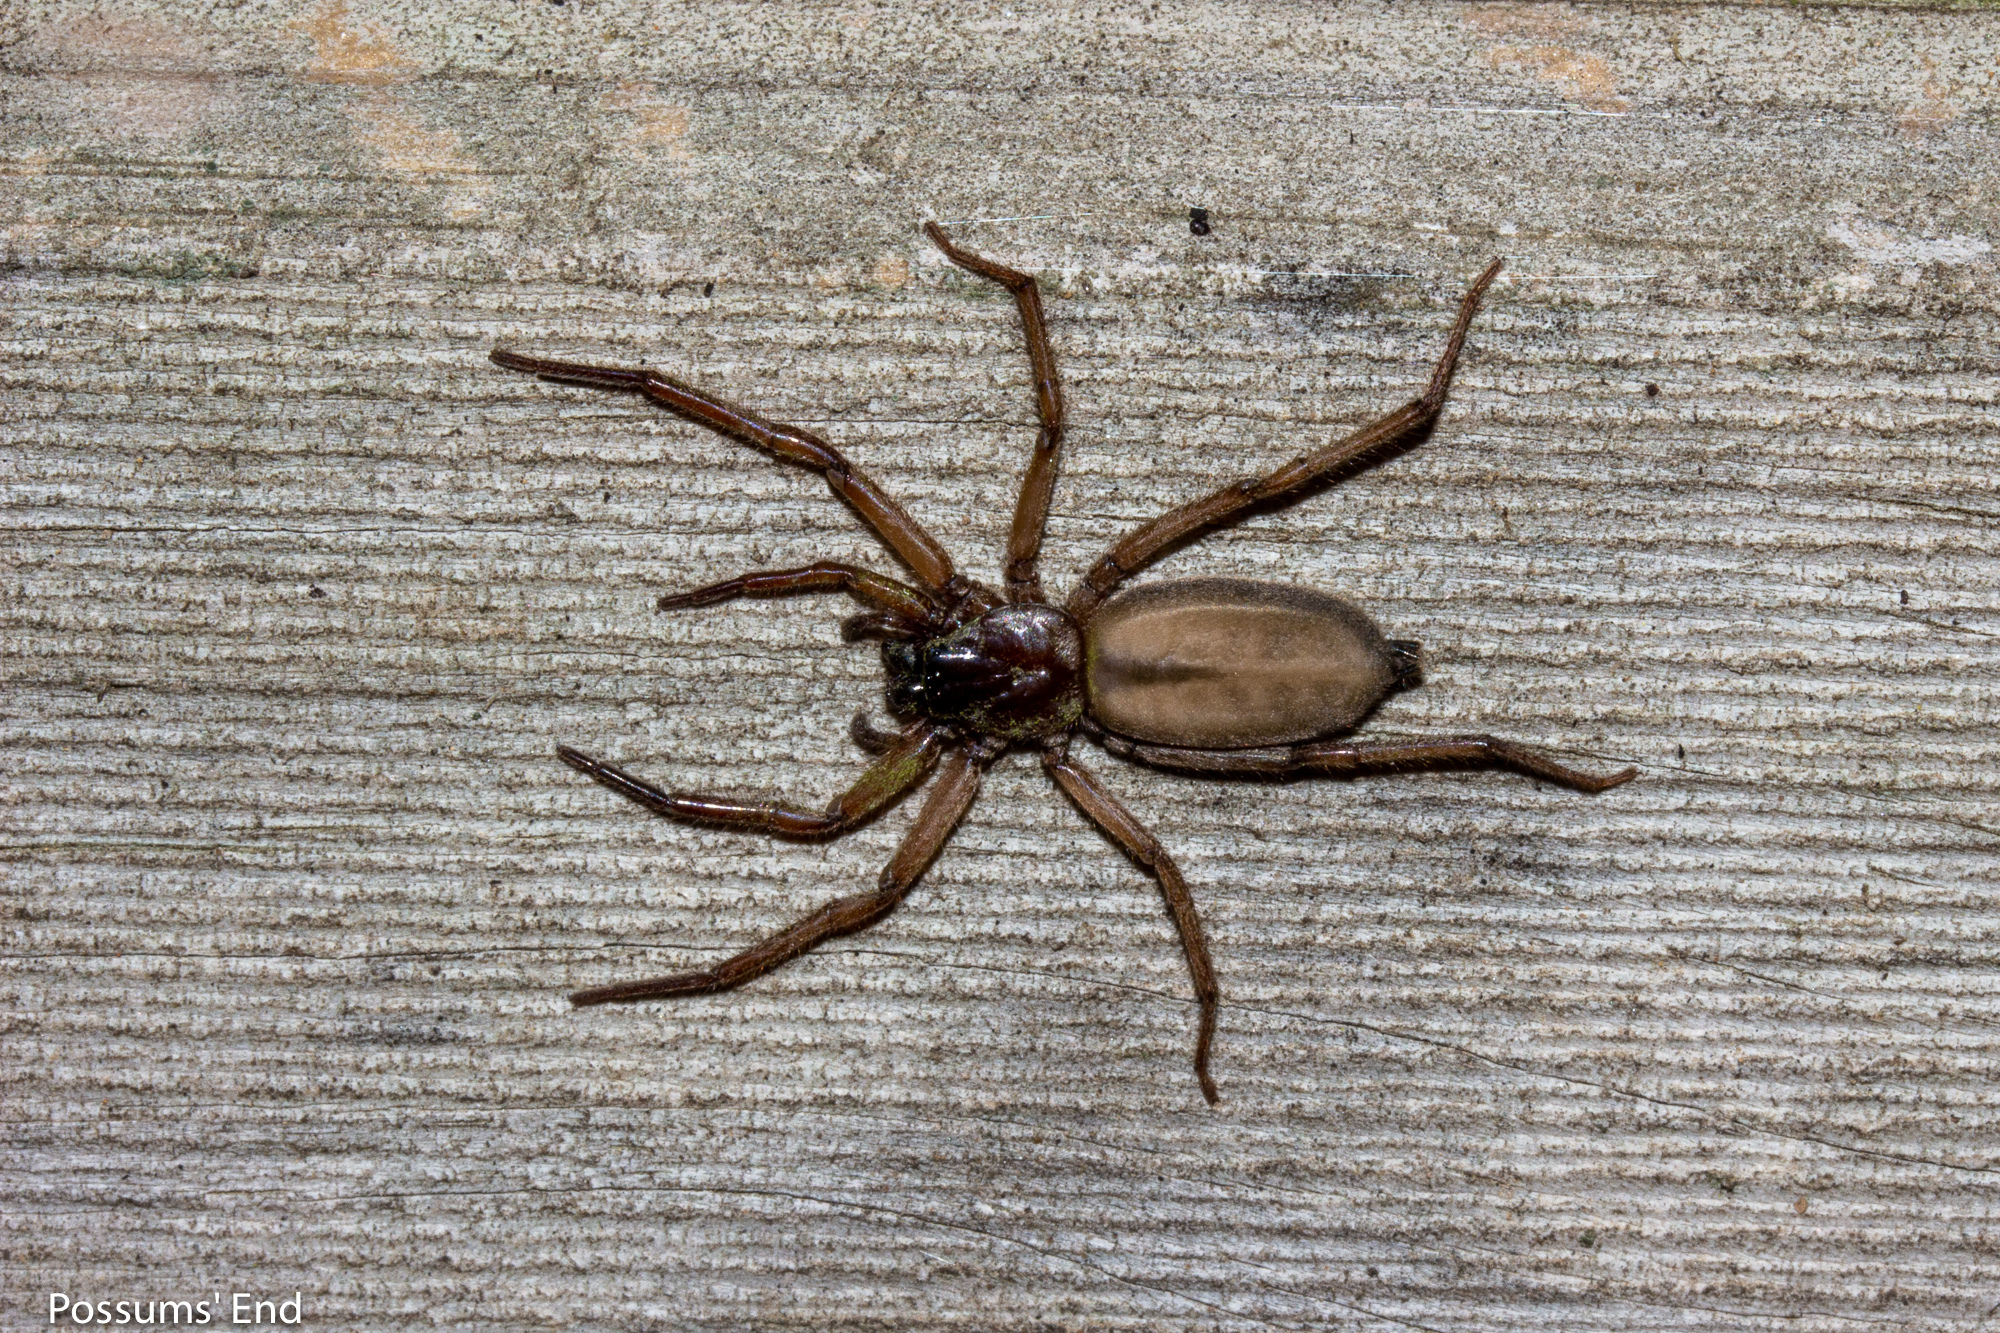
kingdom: Animalia
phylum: Arthropoda
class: Arachnida
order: Araneae
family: Trochanteriidae
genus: Hemicloea
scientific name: Hemicloea rogenhoferi
